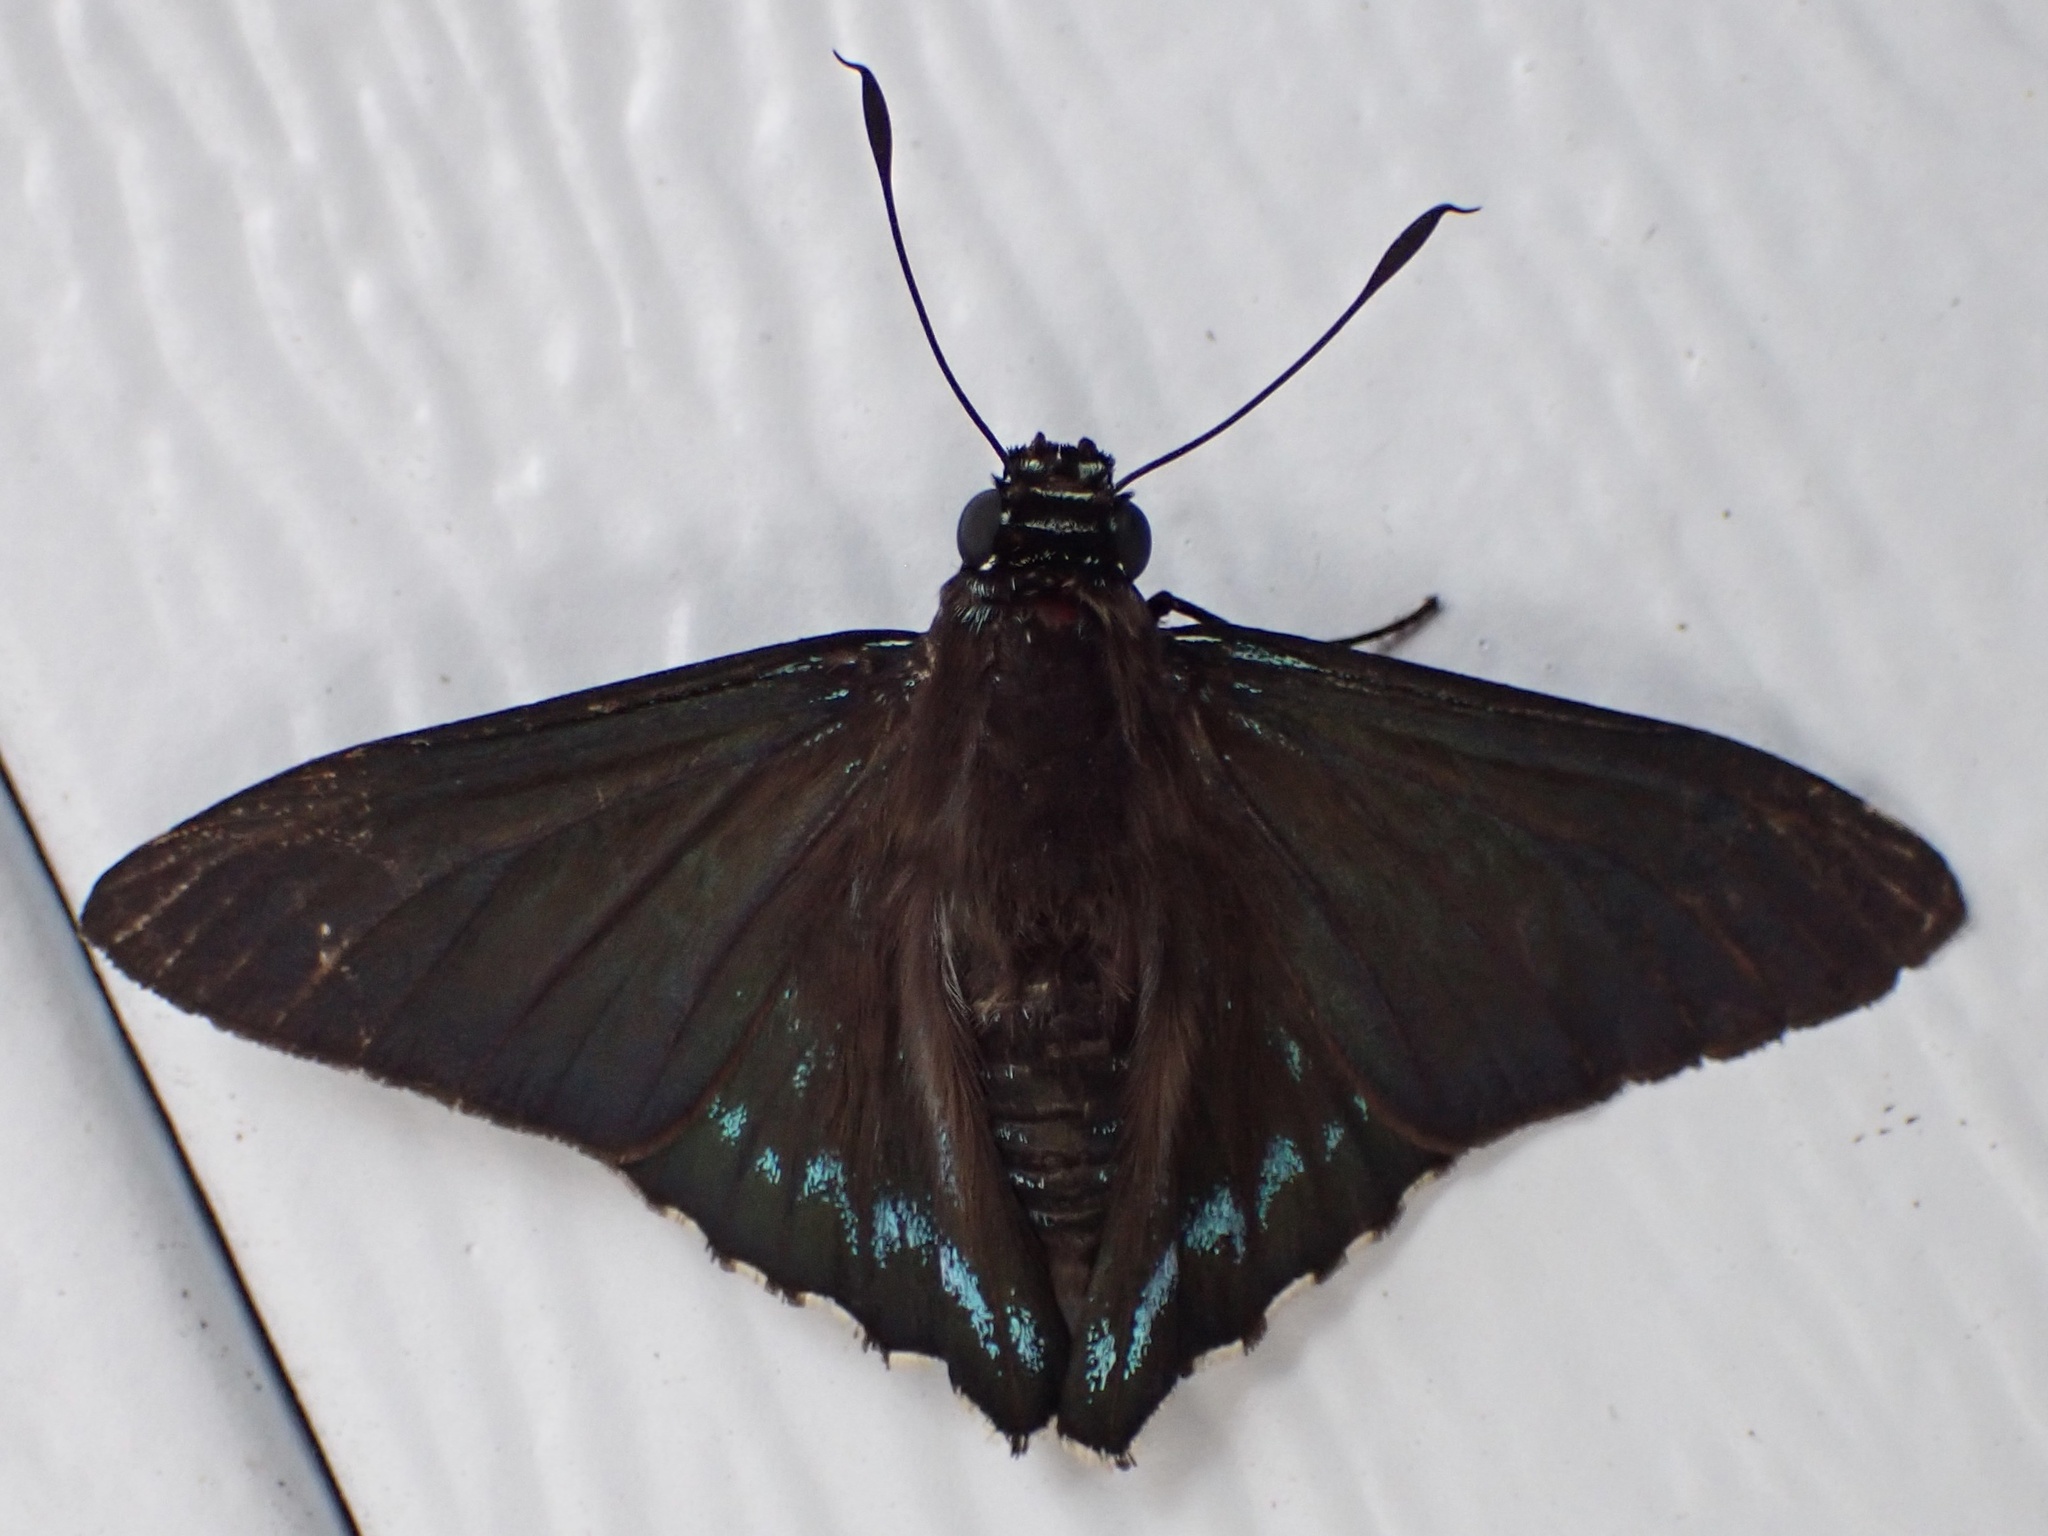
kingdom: Animalia
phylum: Arthropoda
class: Insecta
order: Lepidoptera
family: Hesperiidae
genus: Phocides
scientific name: Phocides pigmalion
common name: Mangrove skipper
